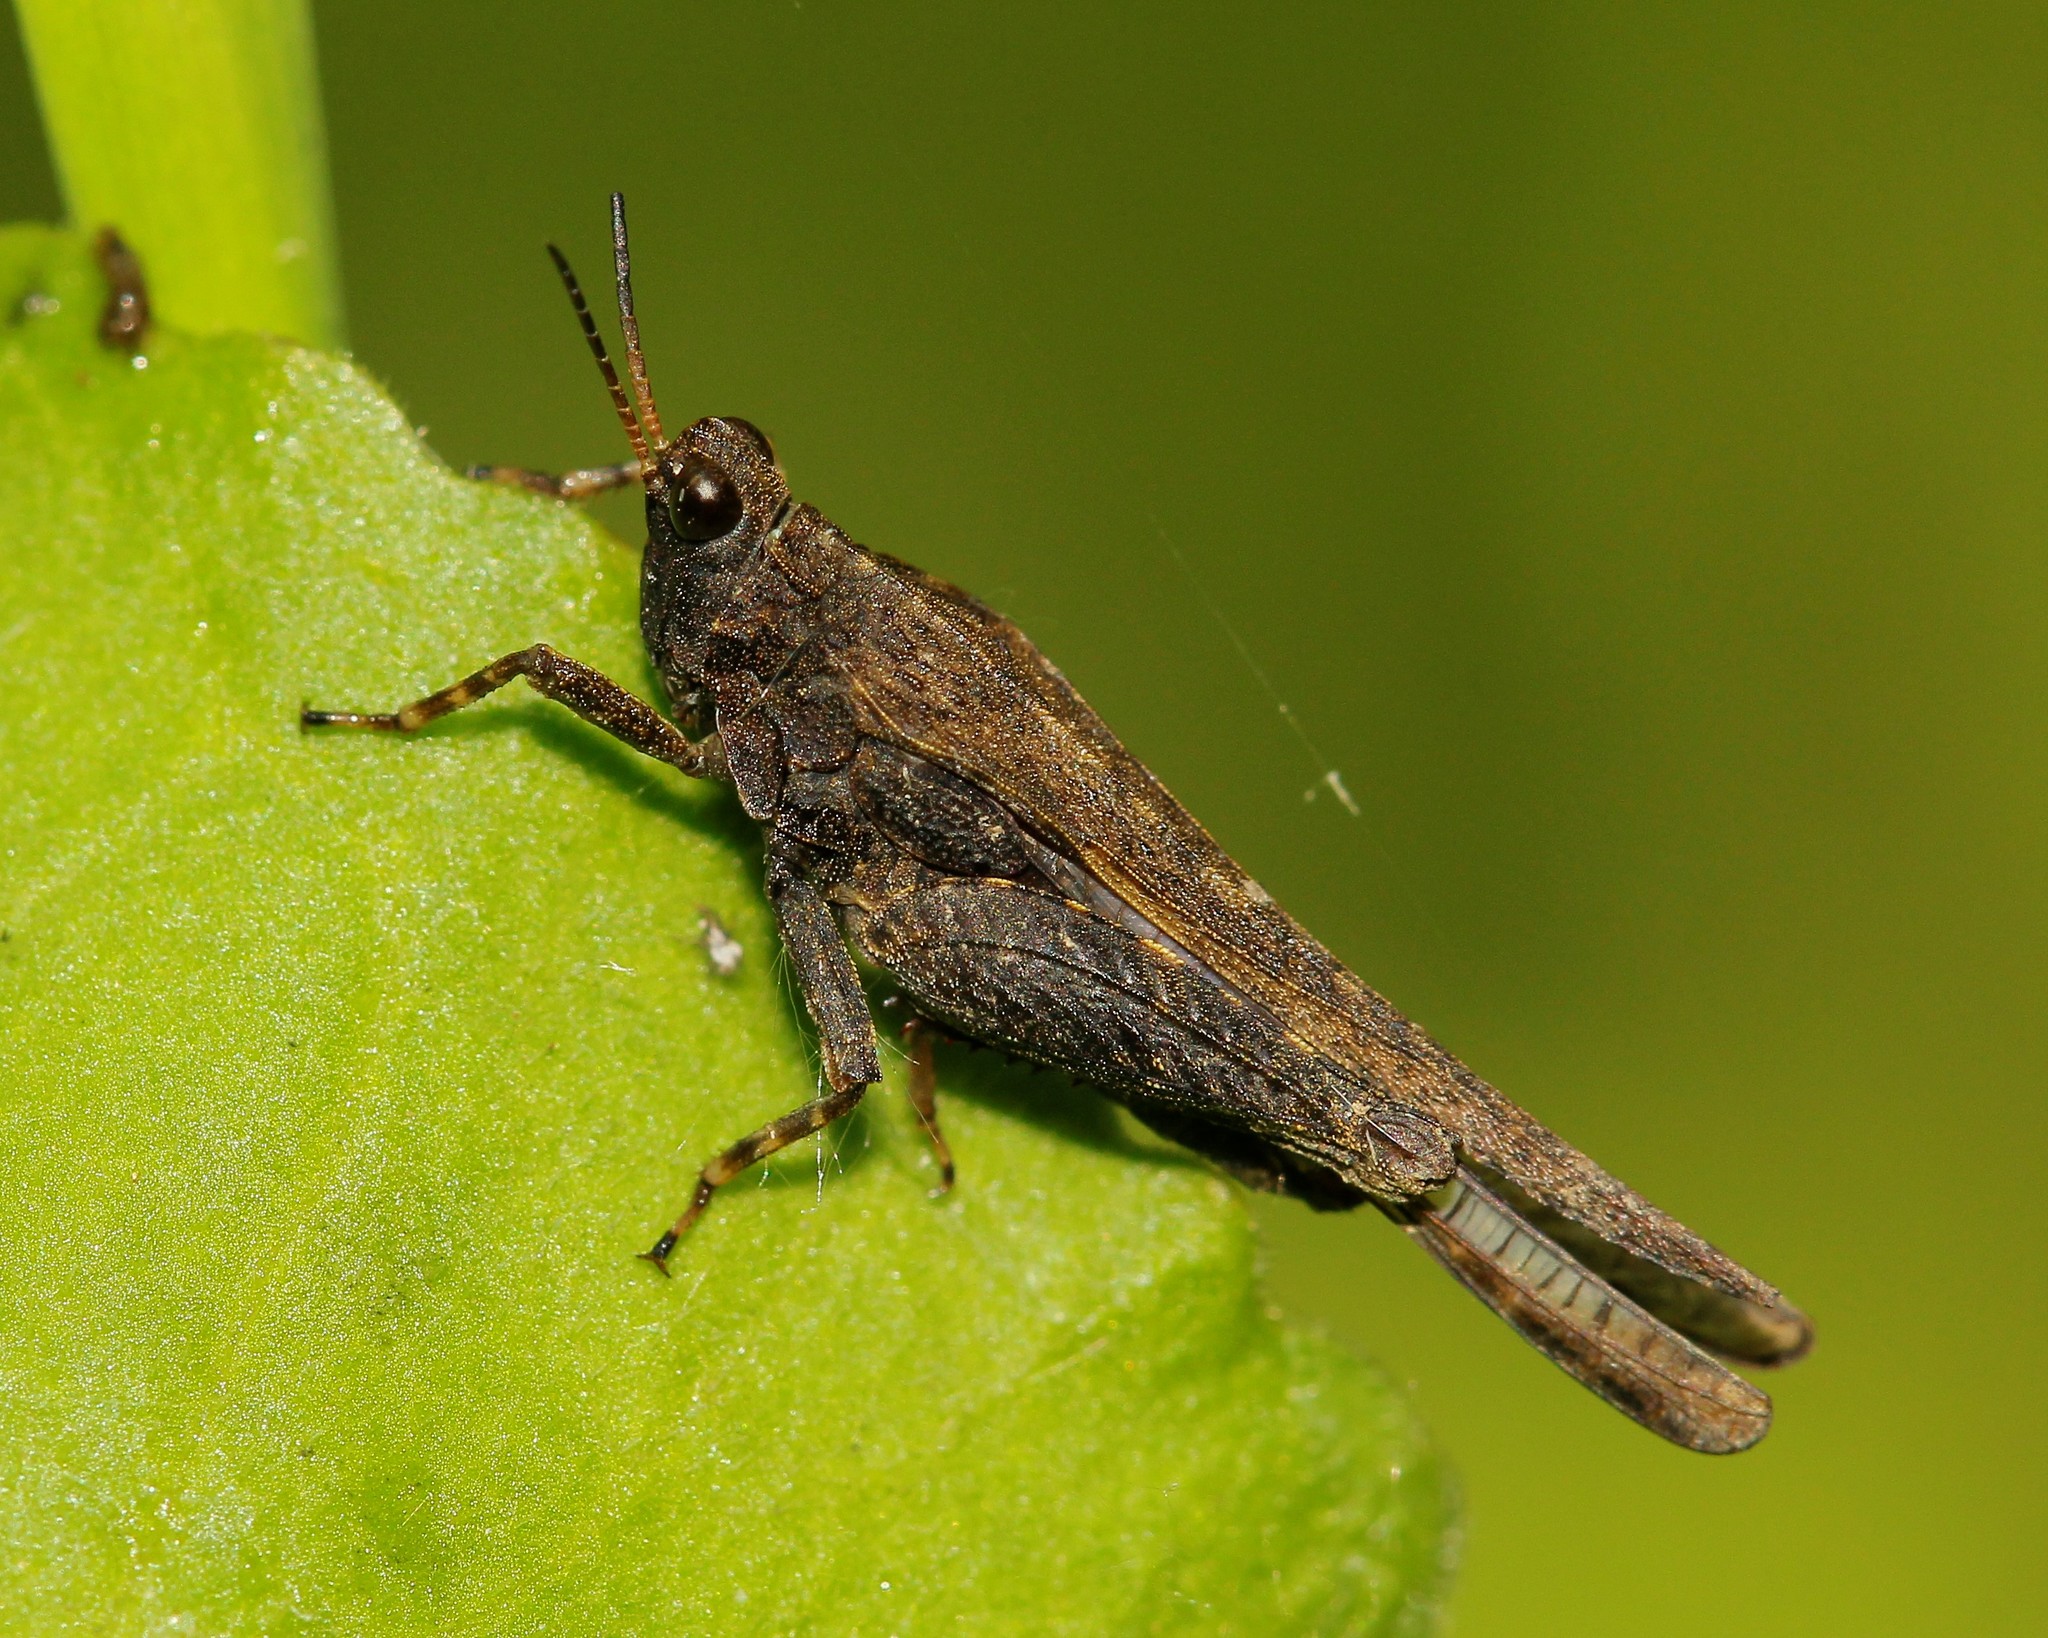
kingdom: Animalia
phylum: Arthropoda
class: Insecta
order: Orthoptera
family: Tetrigidae
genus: Tetrix
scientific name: Tetrix subulata
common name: Slender ground-hopper
